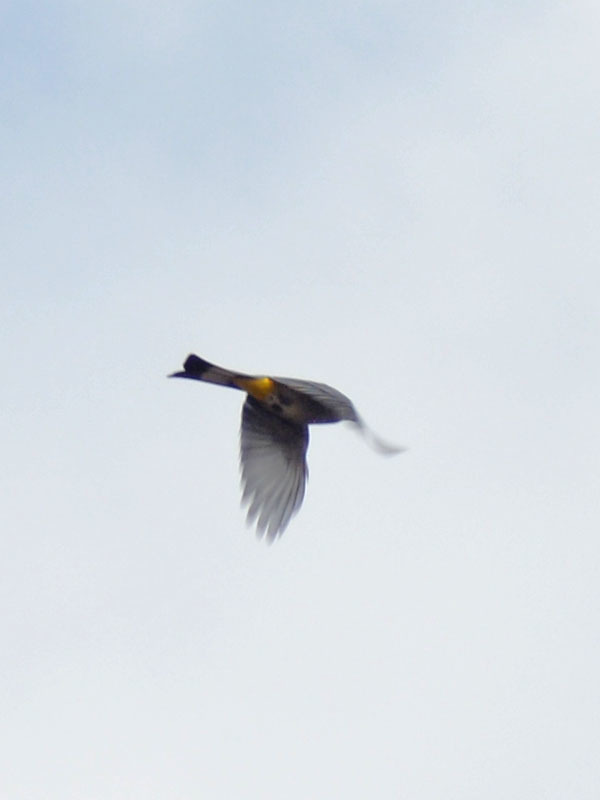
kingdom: Animalia
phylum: Chordata
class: Aves
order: Passeriformes
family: Ptilogonatidae
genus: Ptilogonys
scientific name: Ptilogonys cinereus
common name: Gray silky-flycatcher
